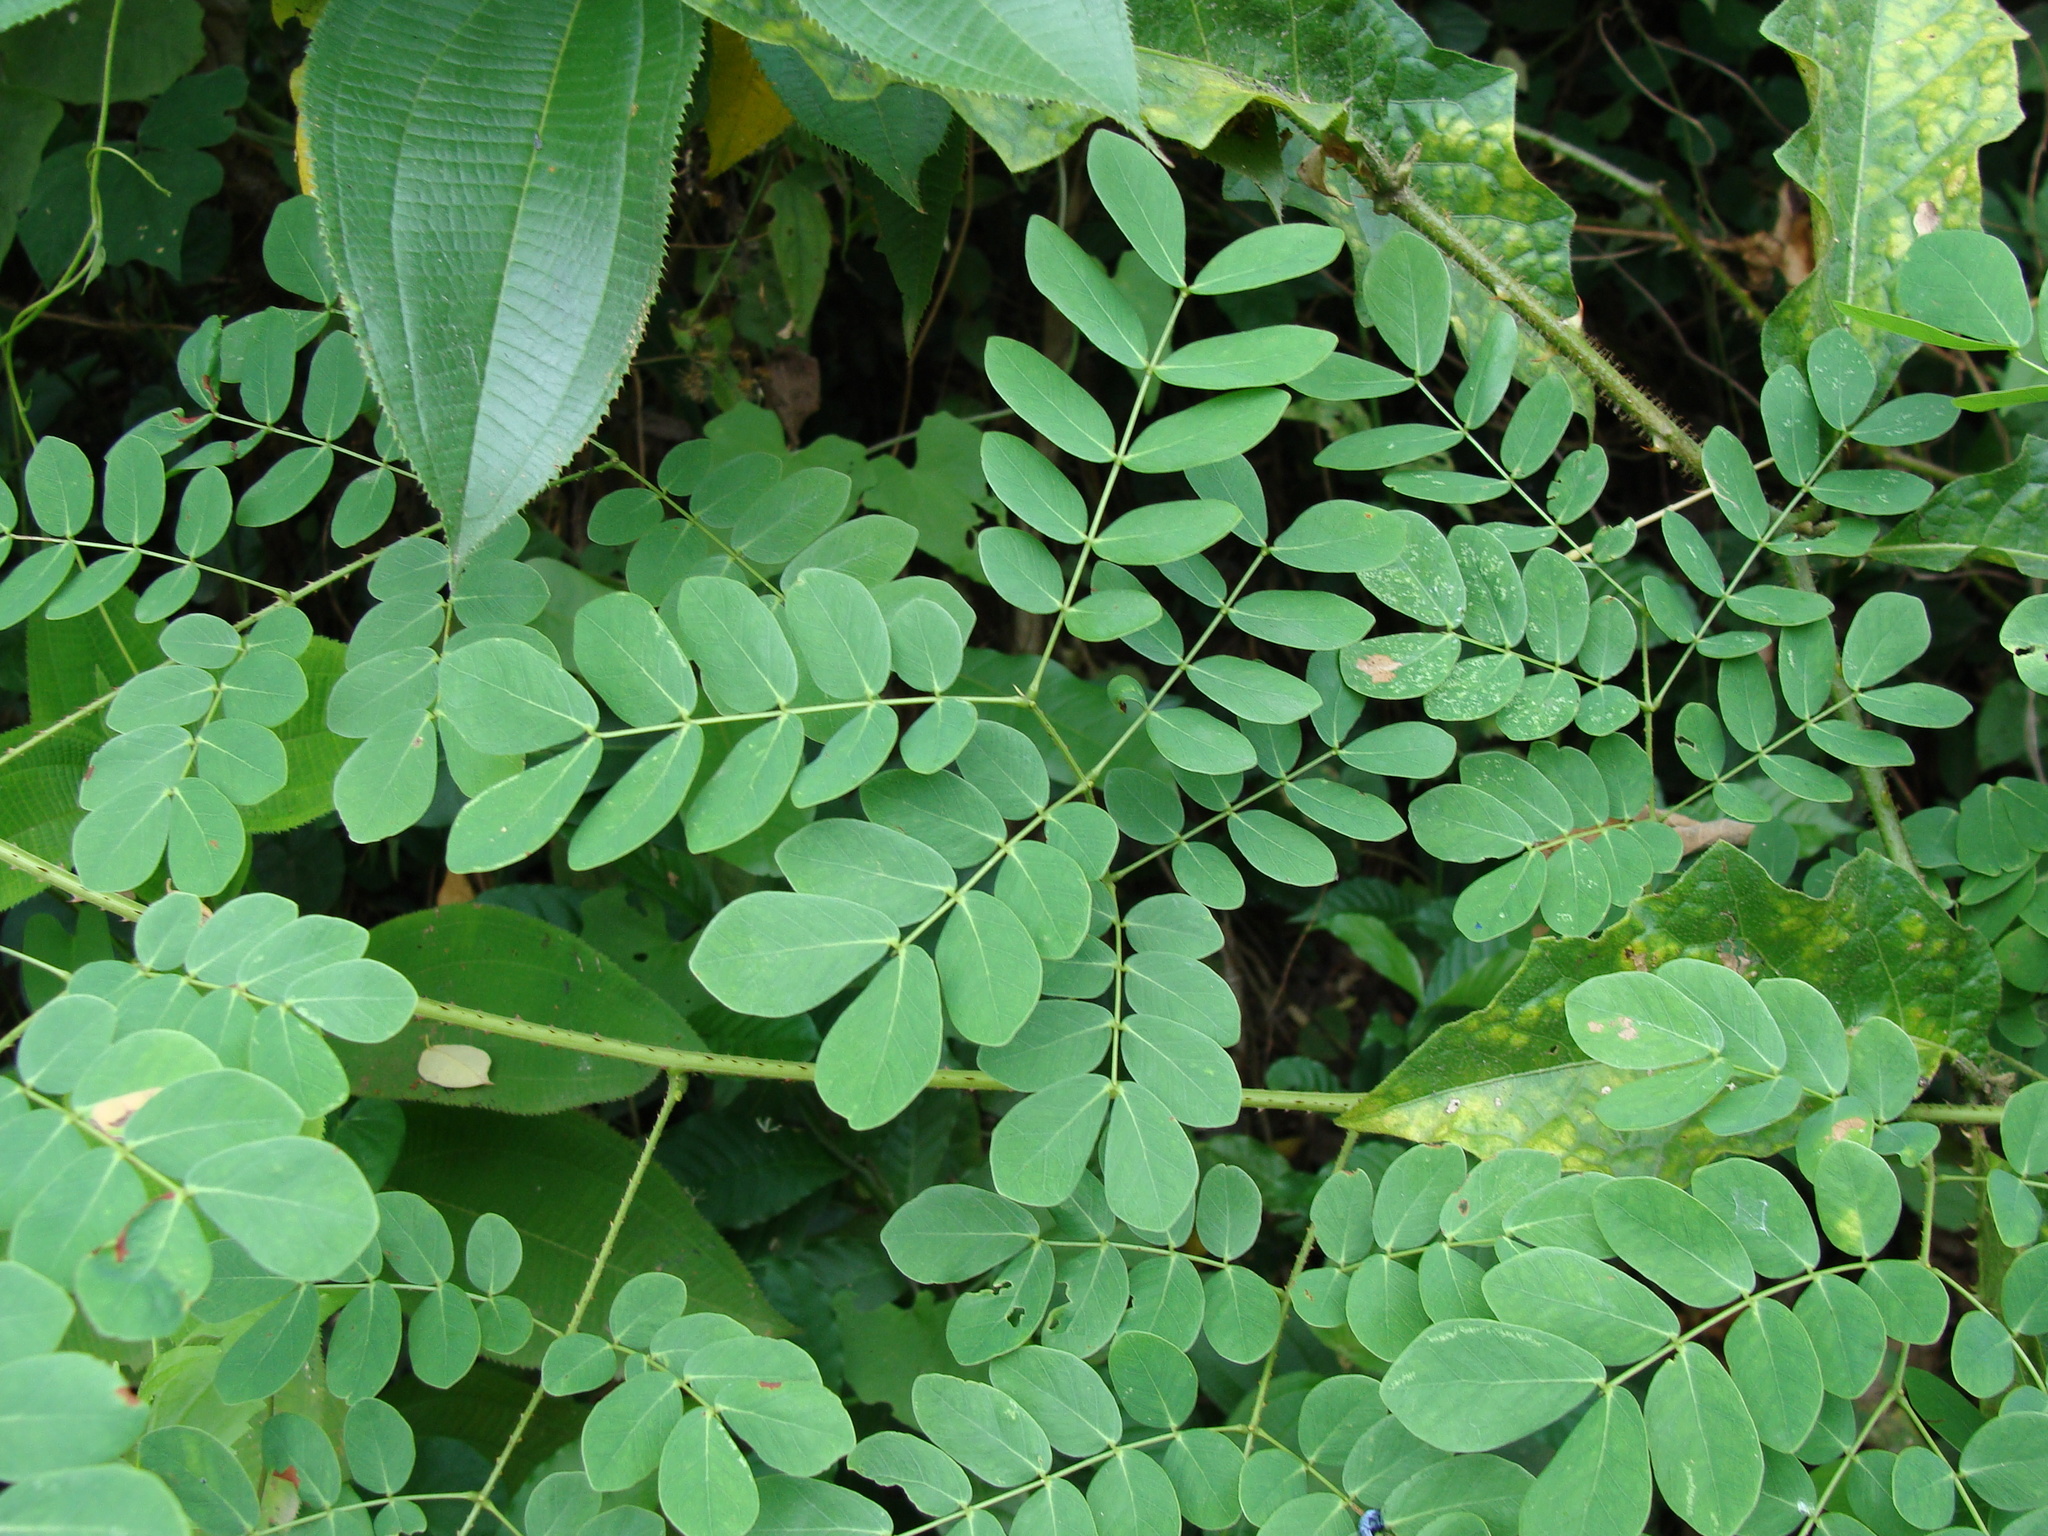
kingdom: Plantae
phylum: Tracheophyta
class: Magnoliopsida
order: Fabales
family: Fabaceae
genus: Entada
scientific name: Entada polystachya
